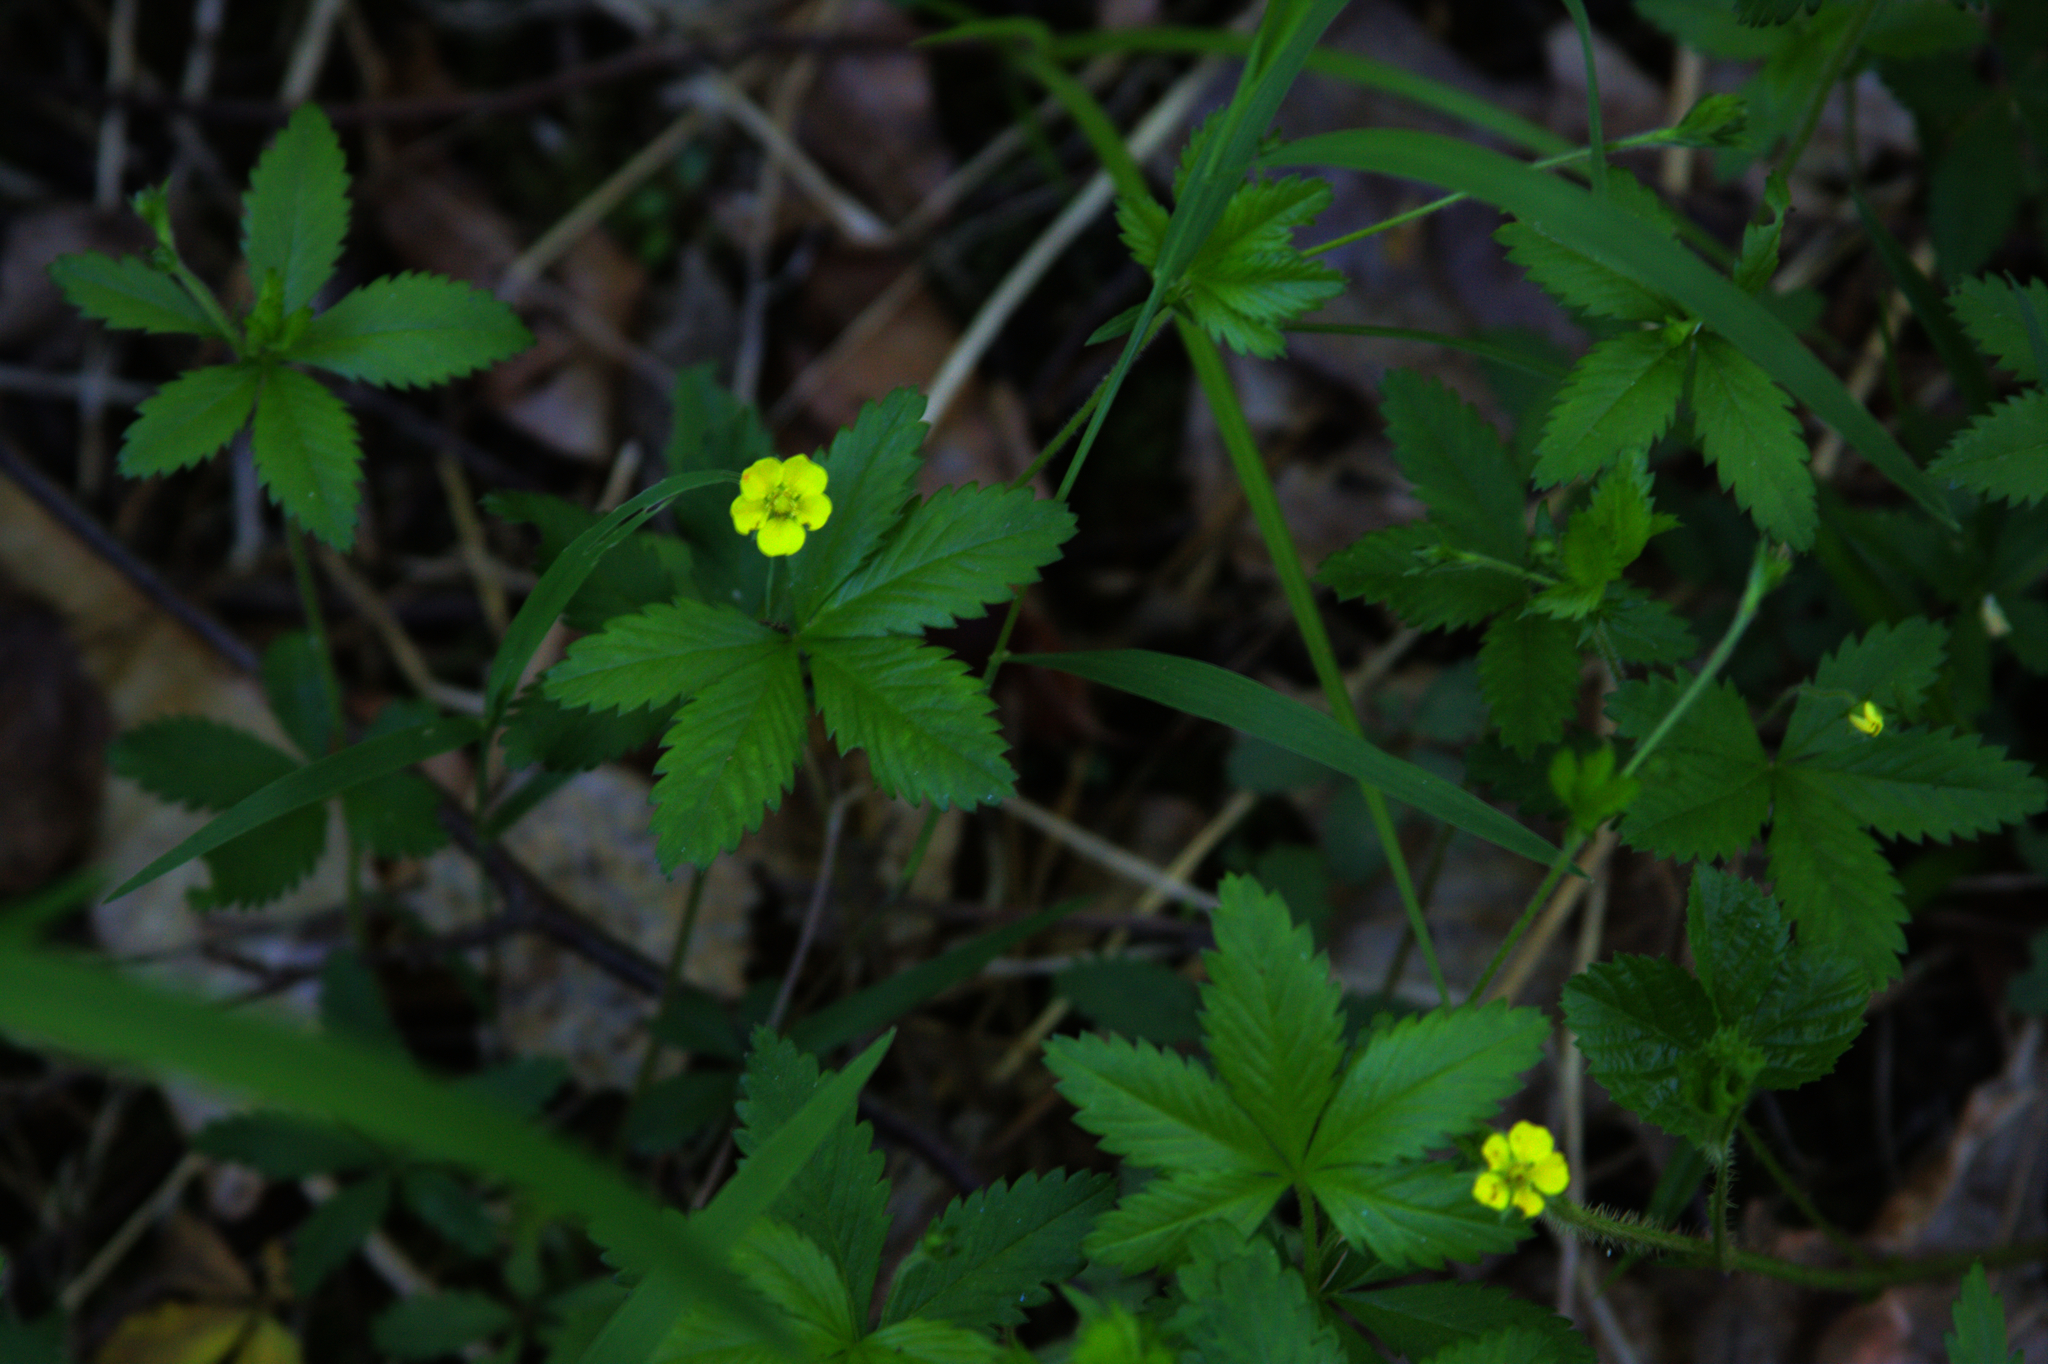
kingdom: Plantae
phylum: Tracheophyta
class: Magnoliopsida
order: Rosales
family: Rosaceae
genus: Potentilla
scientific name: Potentilla simplex
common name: Old field cinquefoil
